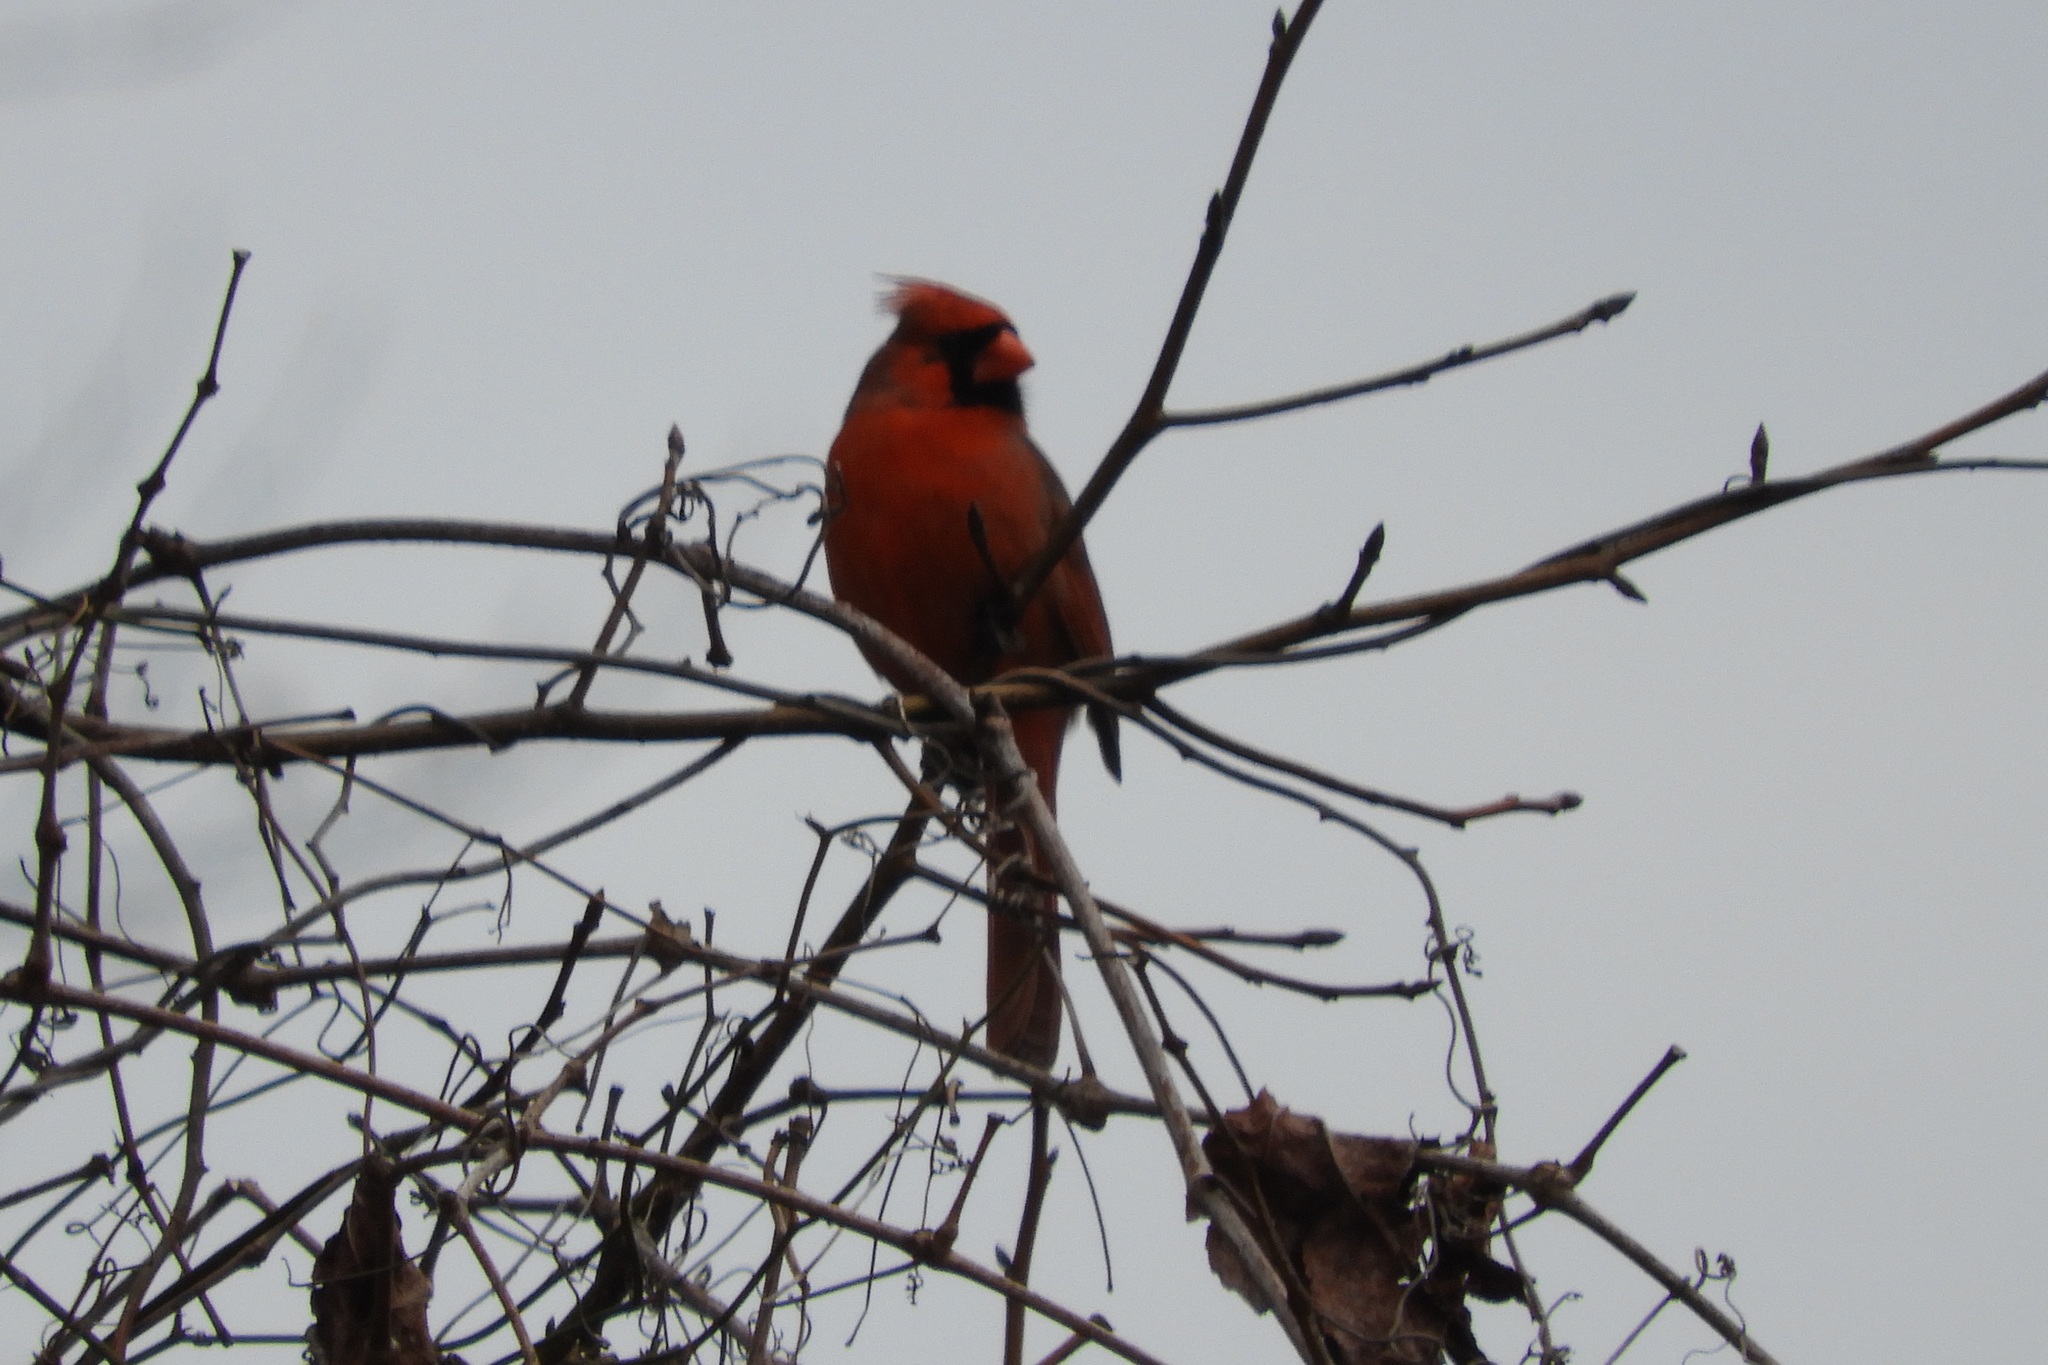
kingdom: Animalia
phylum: Chordata
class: Aves
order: Passeriformes
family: Cardinalidae
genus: Cardinalis
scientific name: Cardinalis cardinalis
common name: Northern cardinal
